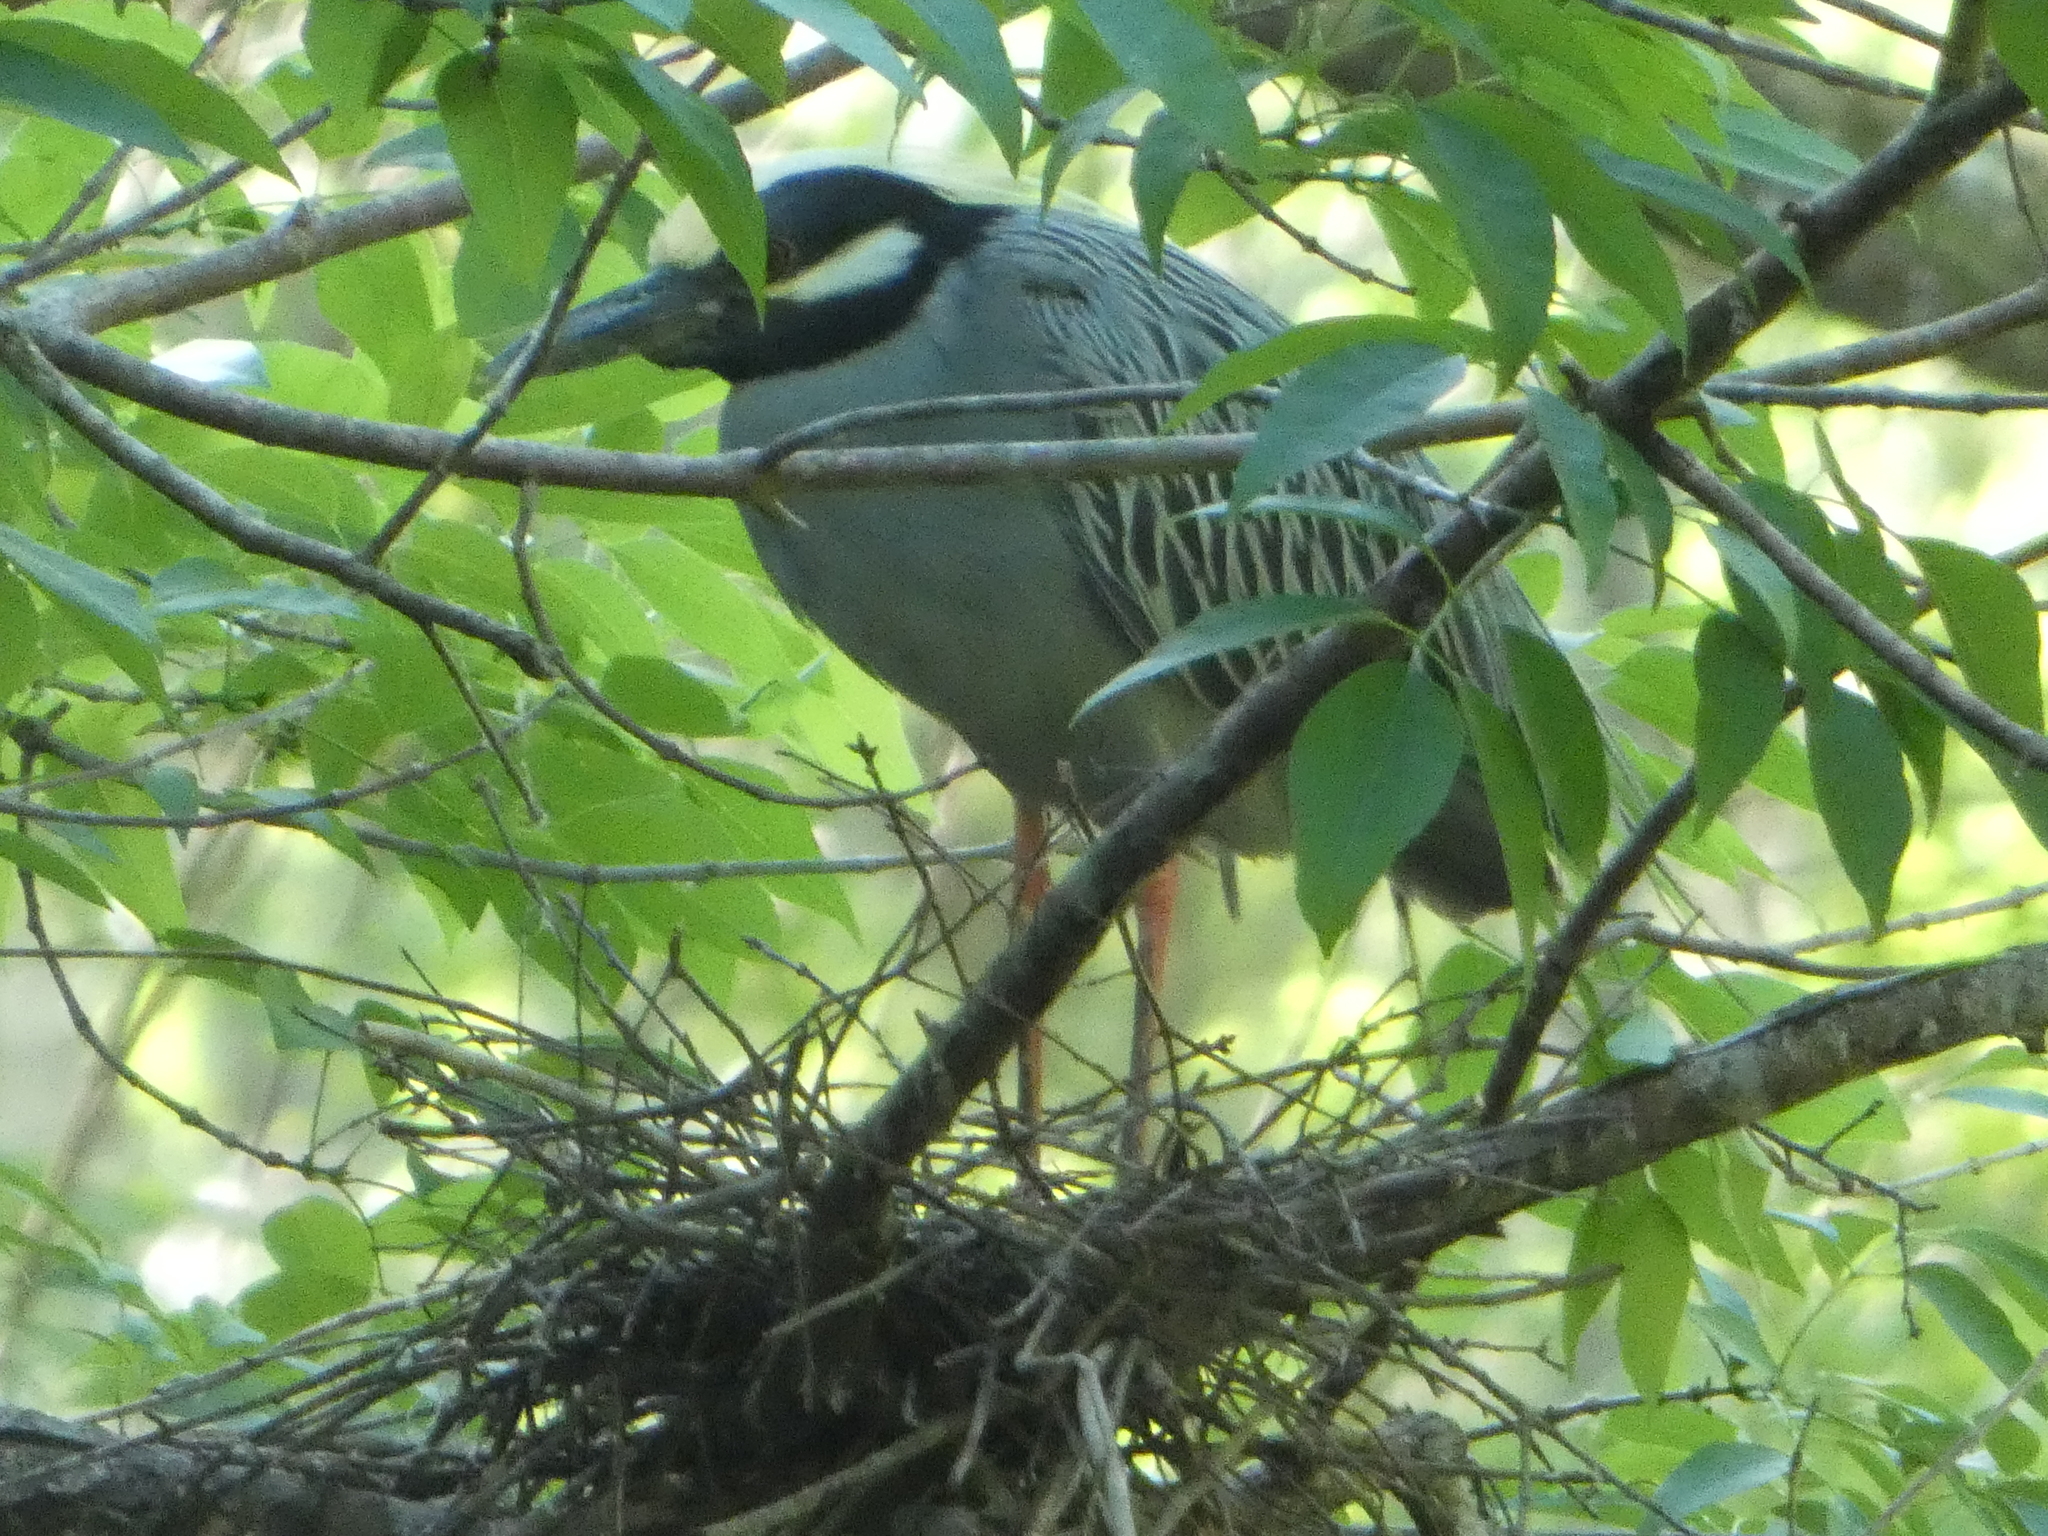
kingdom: Animalia
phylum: Chordata
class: Aves
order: Pelecaniformes
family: Ardeidae
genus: Nyctanassa
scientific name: Nyctanassa violacea
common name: Yellow-crowned night heron
